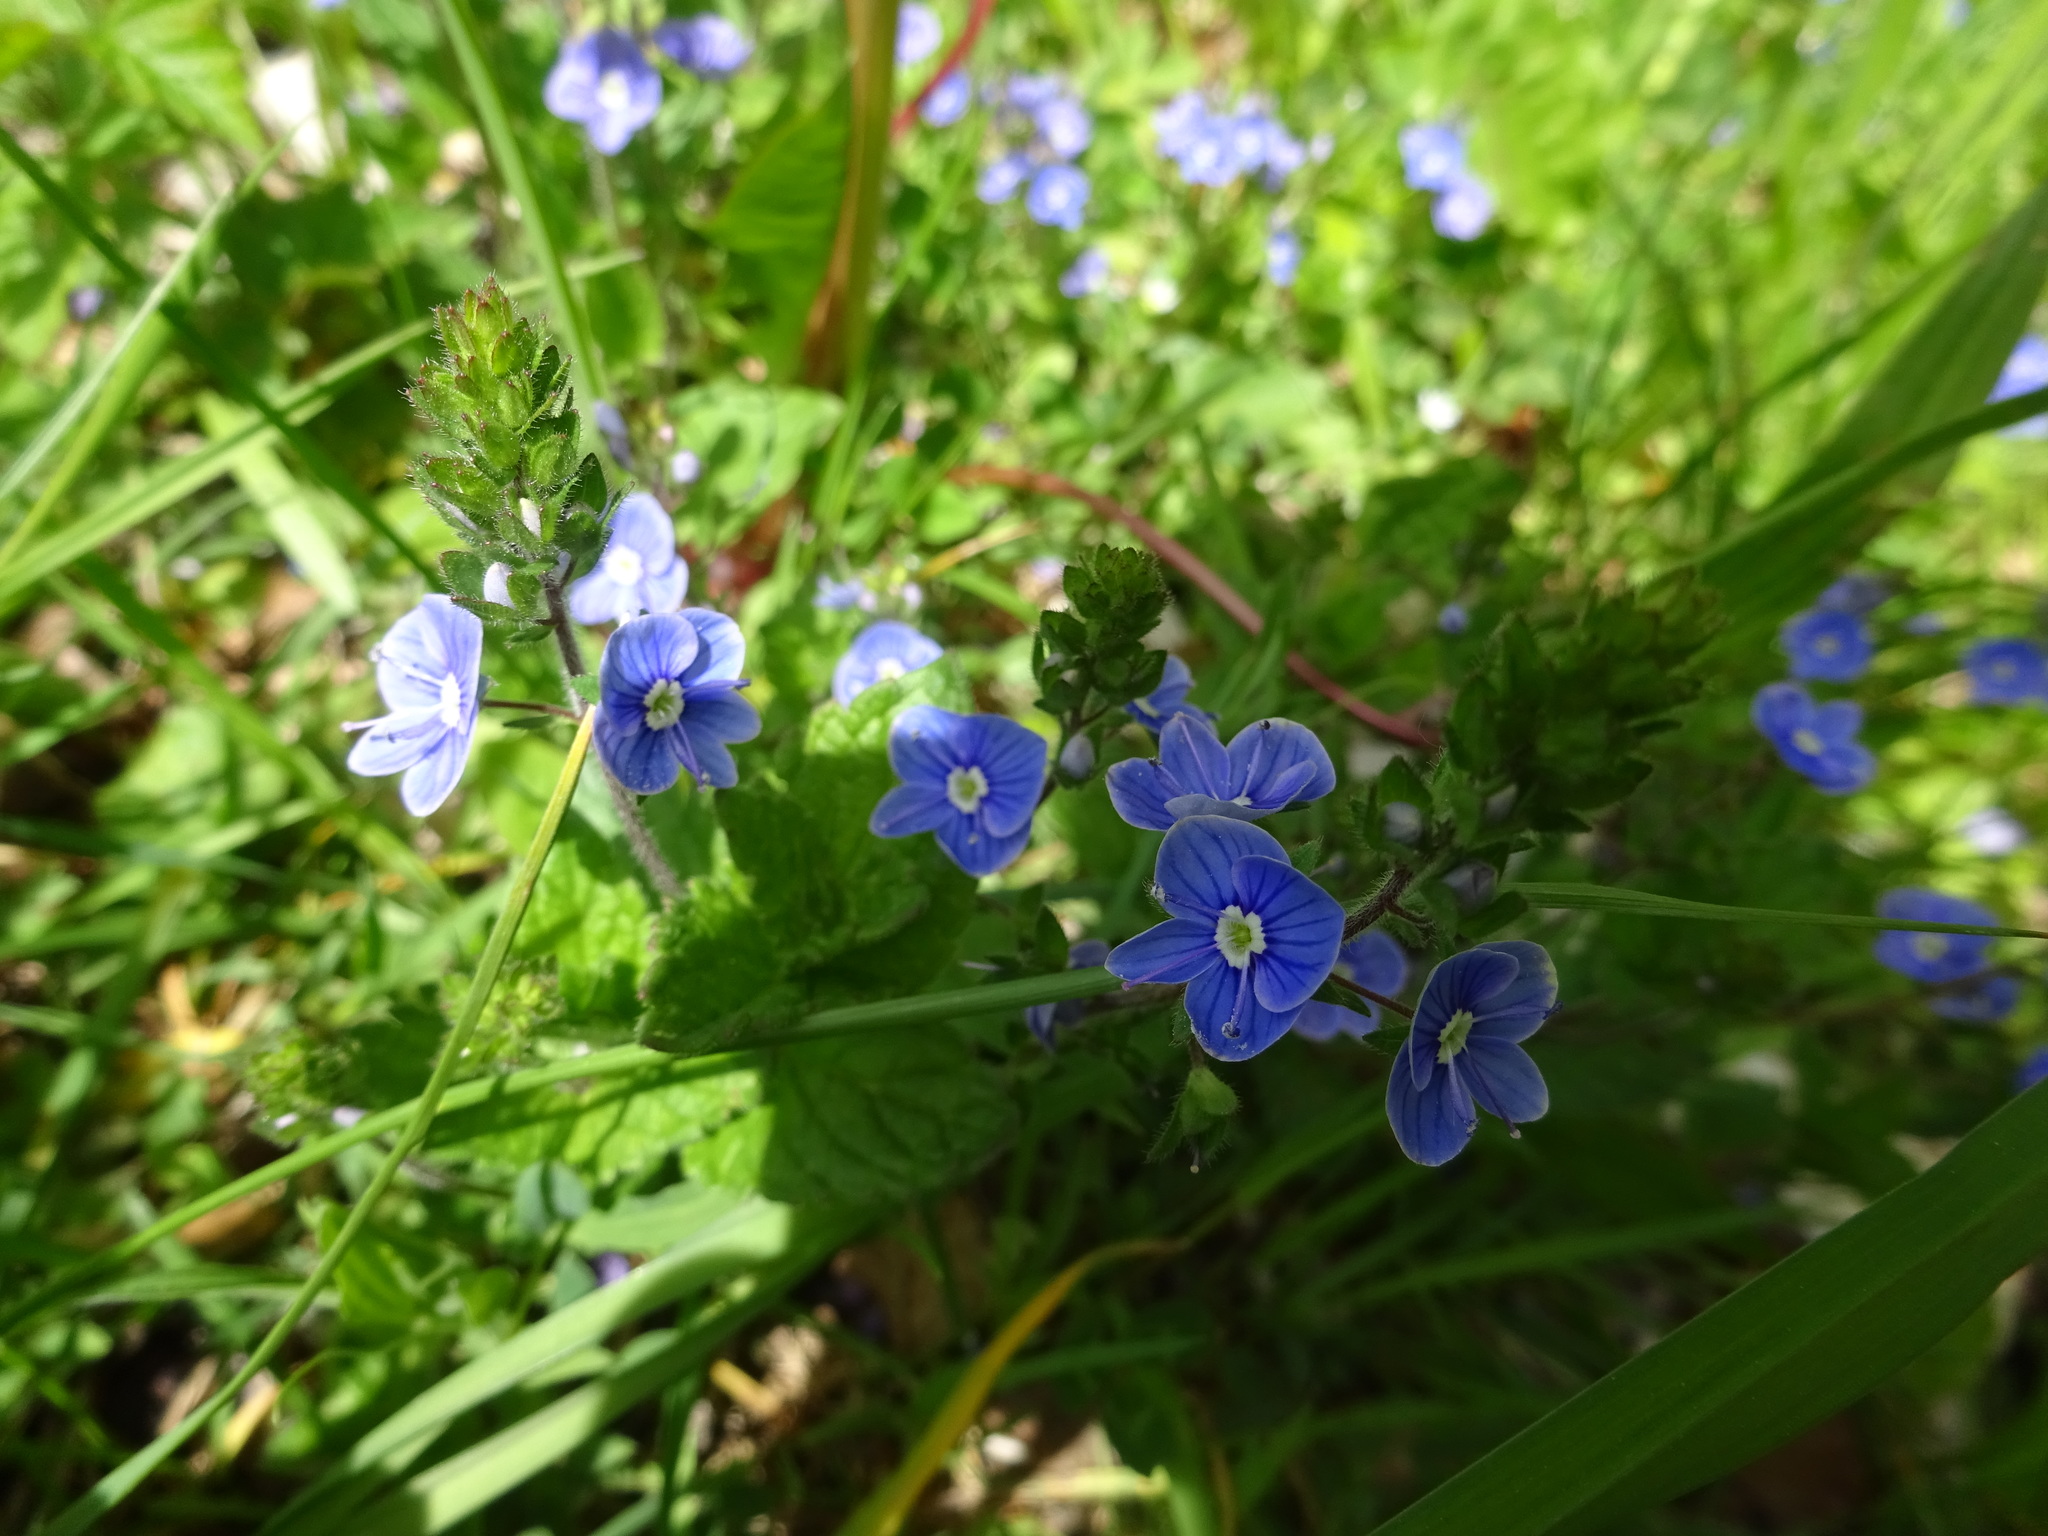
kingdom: Plantae
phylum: Tracheophyta
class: Magnoliopsida
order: Lamiales
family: Plantaginaceae
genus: Veronica
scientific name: Veronica chamaedrys
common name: Germander speedwell
